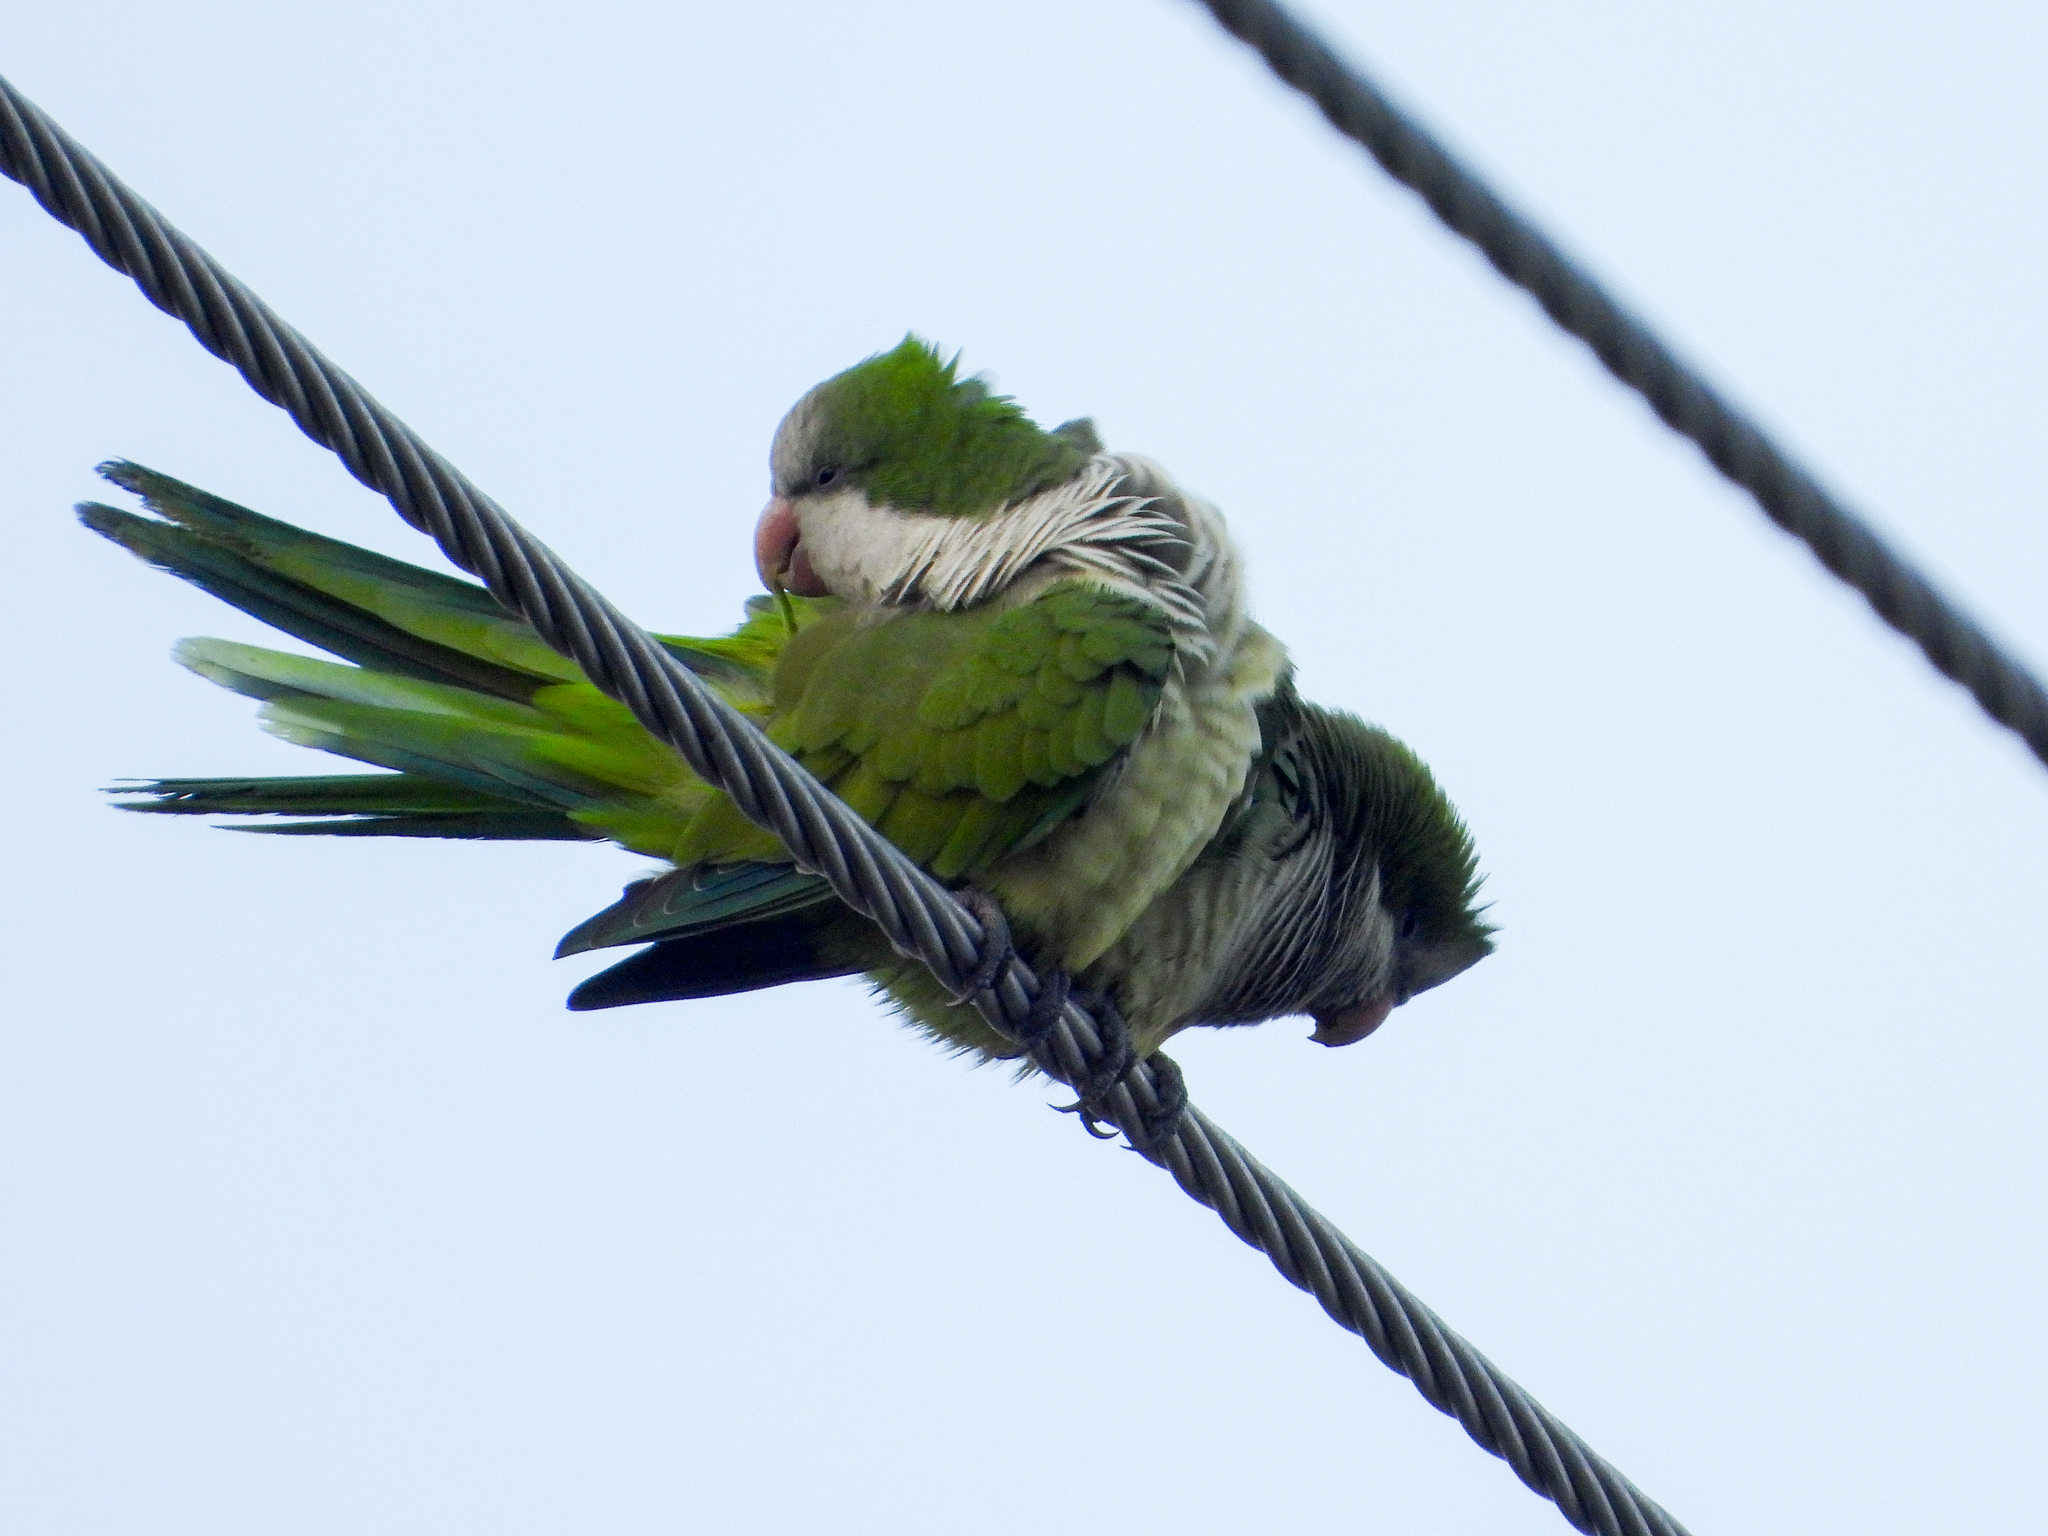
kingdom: Animalia
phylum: Chordata
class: Aves
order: Psittaciformes
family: Psittacidae
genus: Myiopsitta
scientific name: Myiopsitta monachus
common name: Monk parakeet
